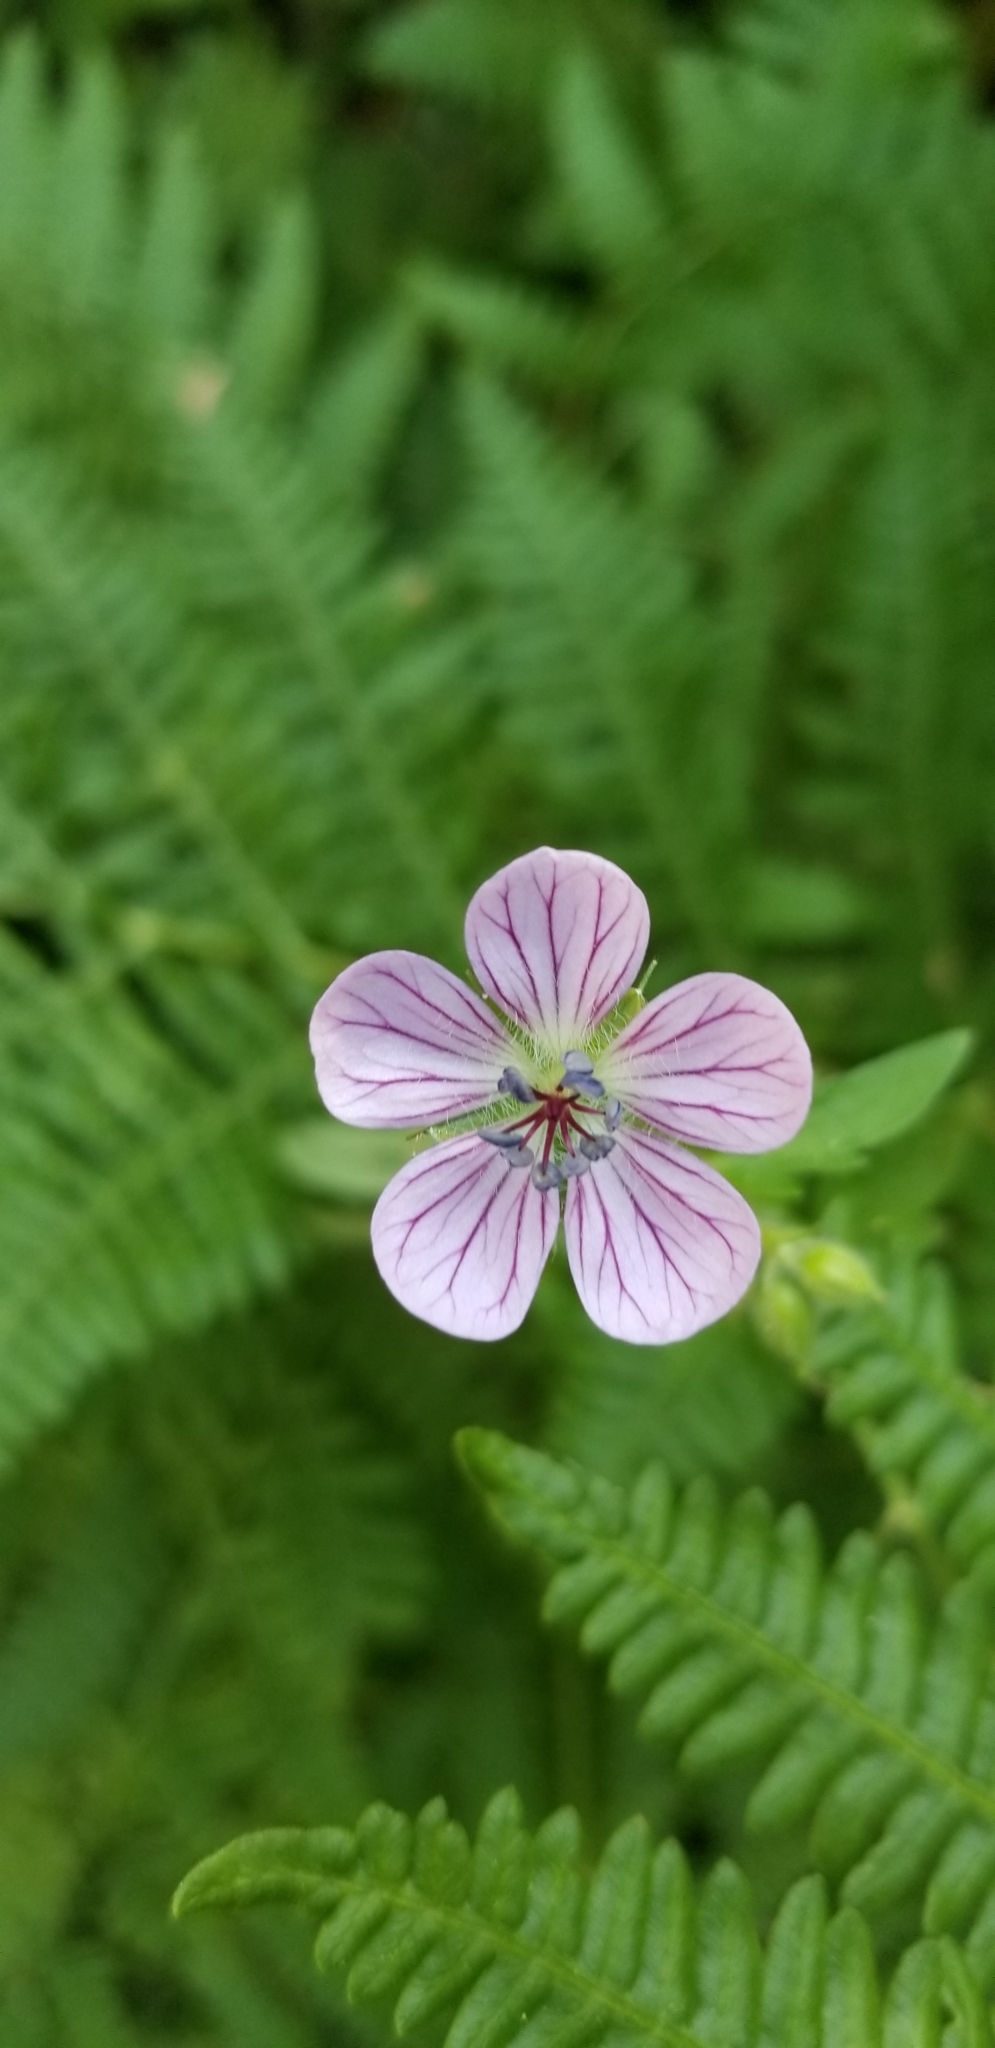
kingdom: Plantae
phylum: Tracheophyta
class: Magnoliopsida
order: Geraniales
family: Geraniaceae
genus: Geranium
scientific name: Geranium californicum
